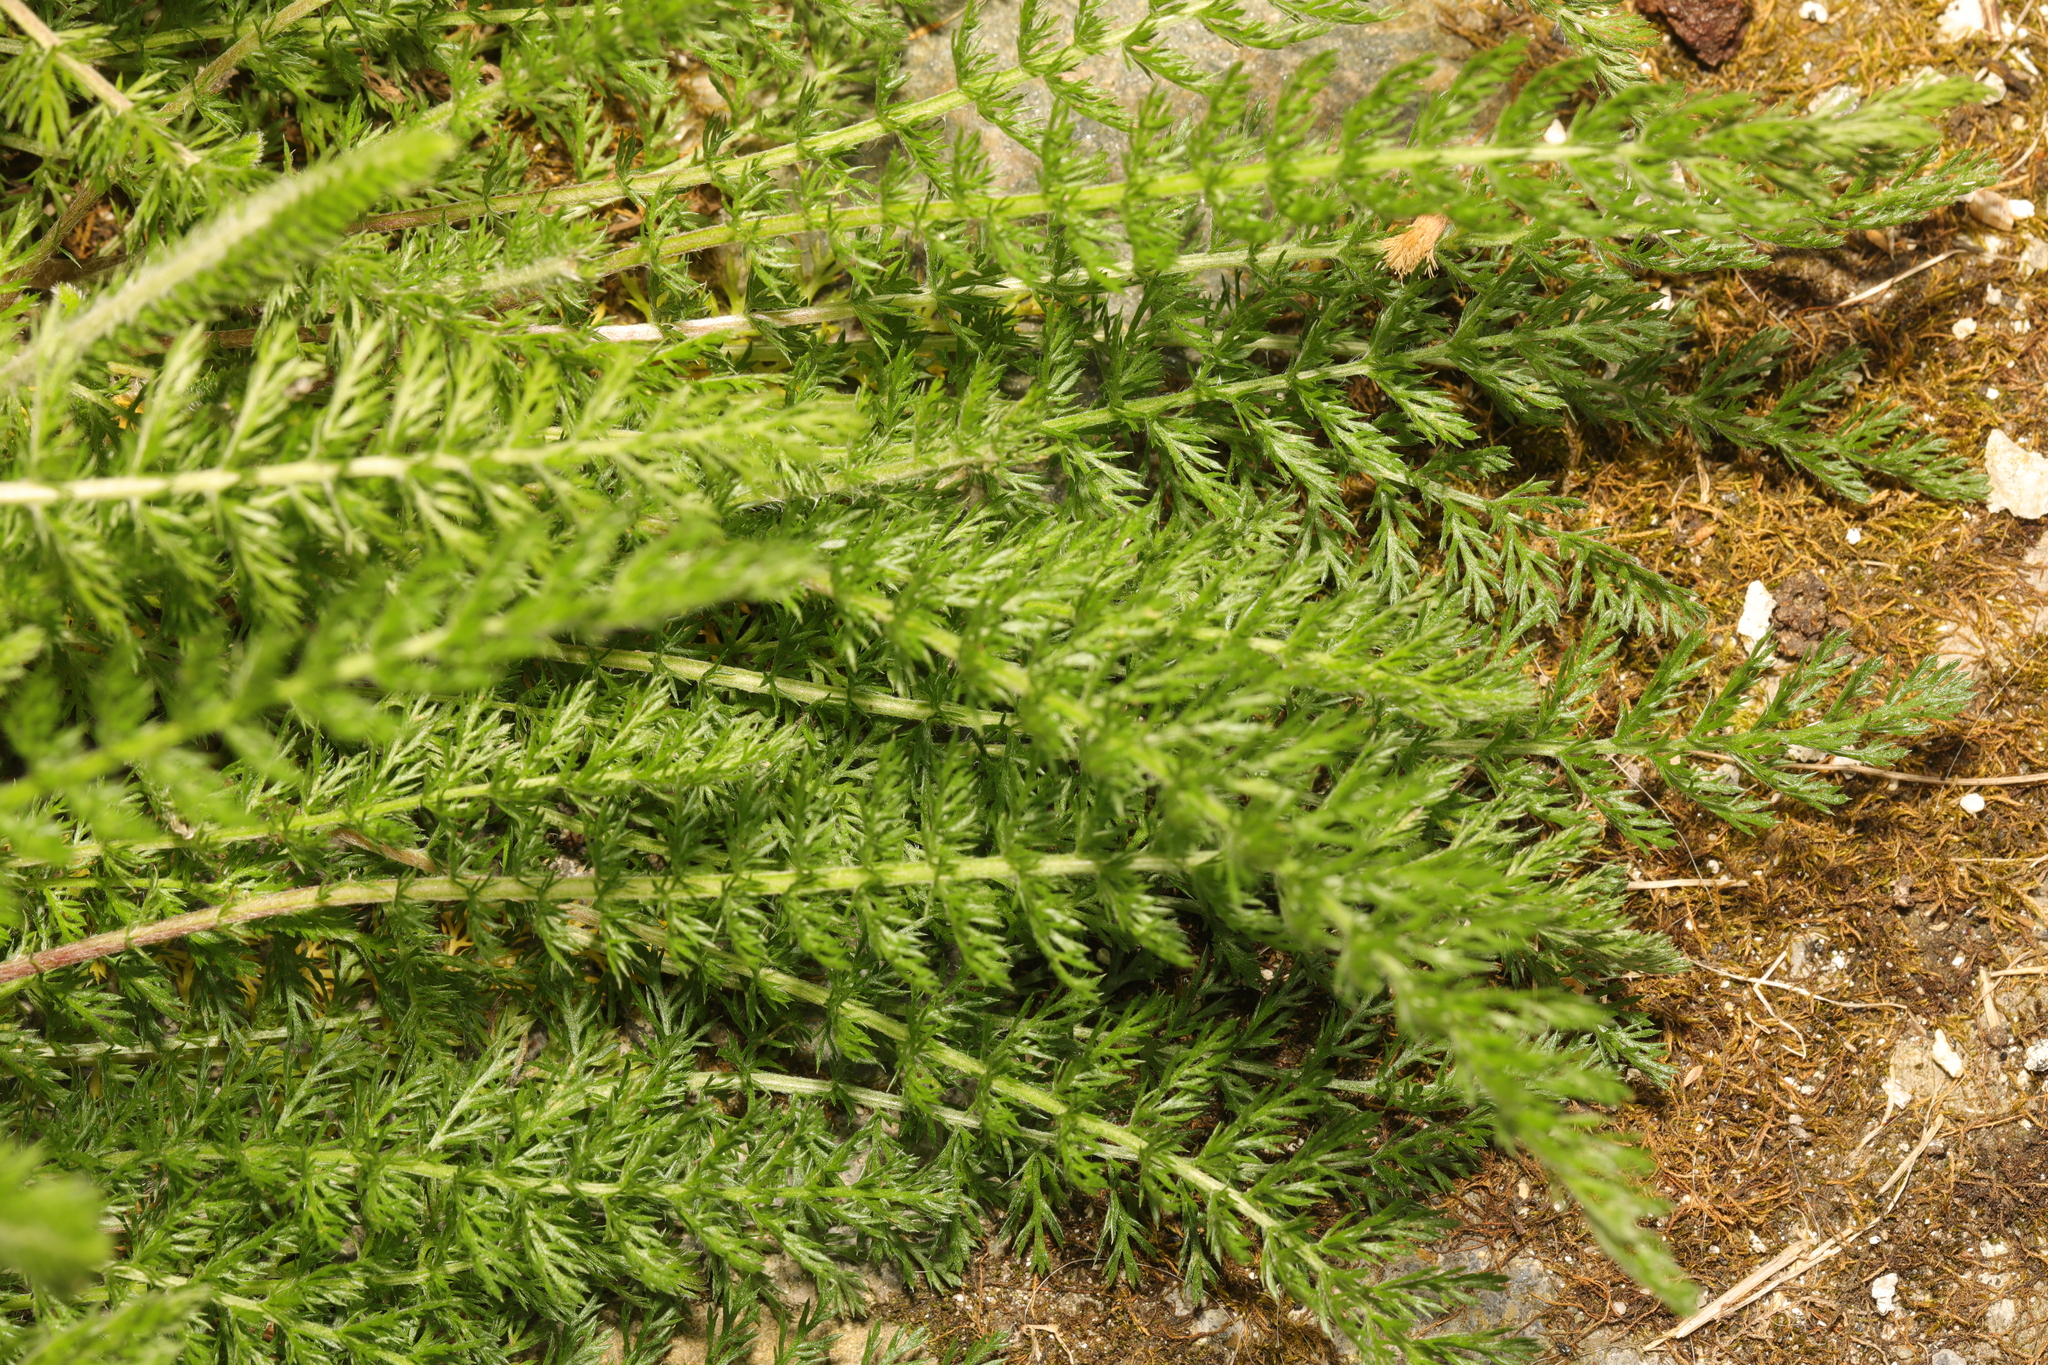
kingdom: Plantae
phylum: Tracheophyta
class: Magnoliopsida
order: Asterales
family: Asteraceae
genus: Achillea
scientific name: Achillea millefolium
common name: Yarrow
